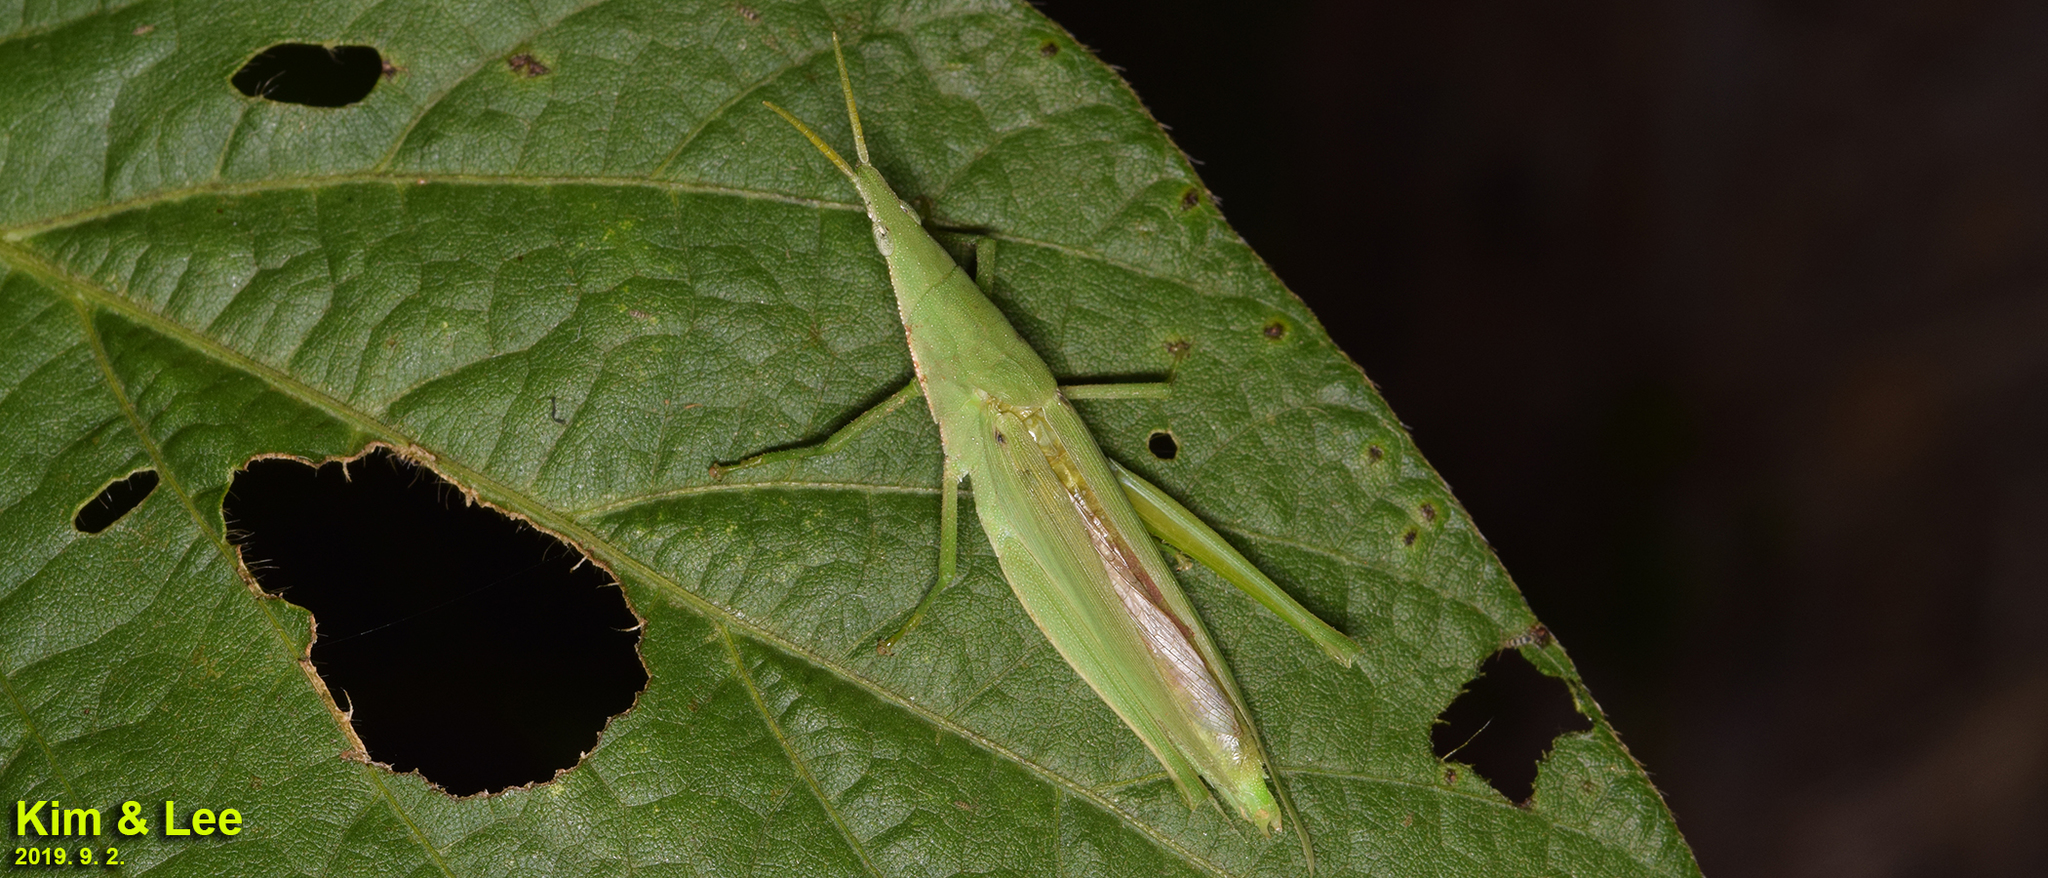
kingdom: Animalia
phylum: Arthropoda
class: Insecta
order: Orthoptera
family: Pyrgomorphidae
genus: Atractomorpha
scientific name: Atractomorpha lata
